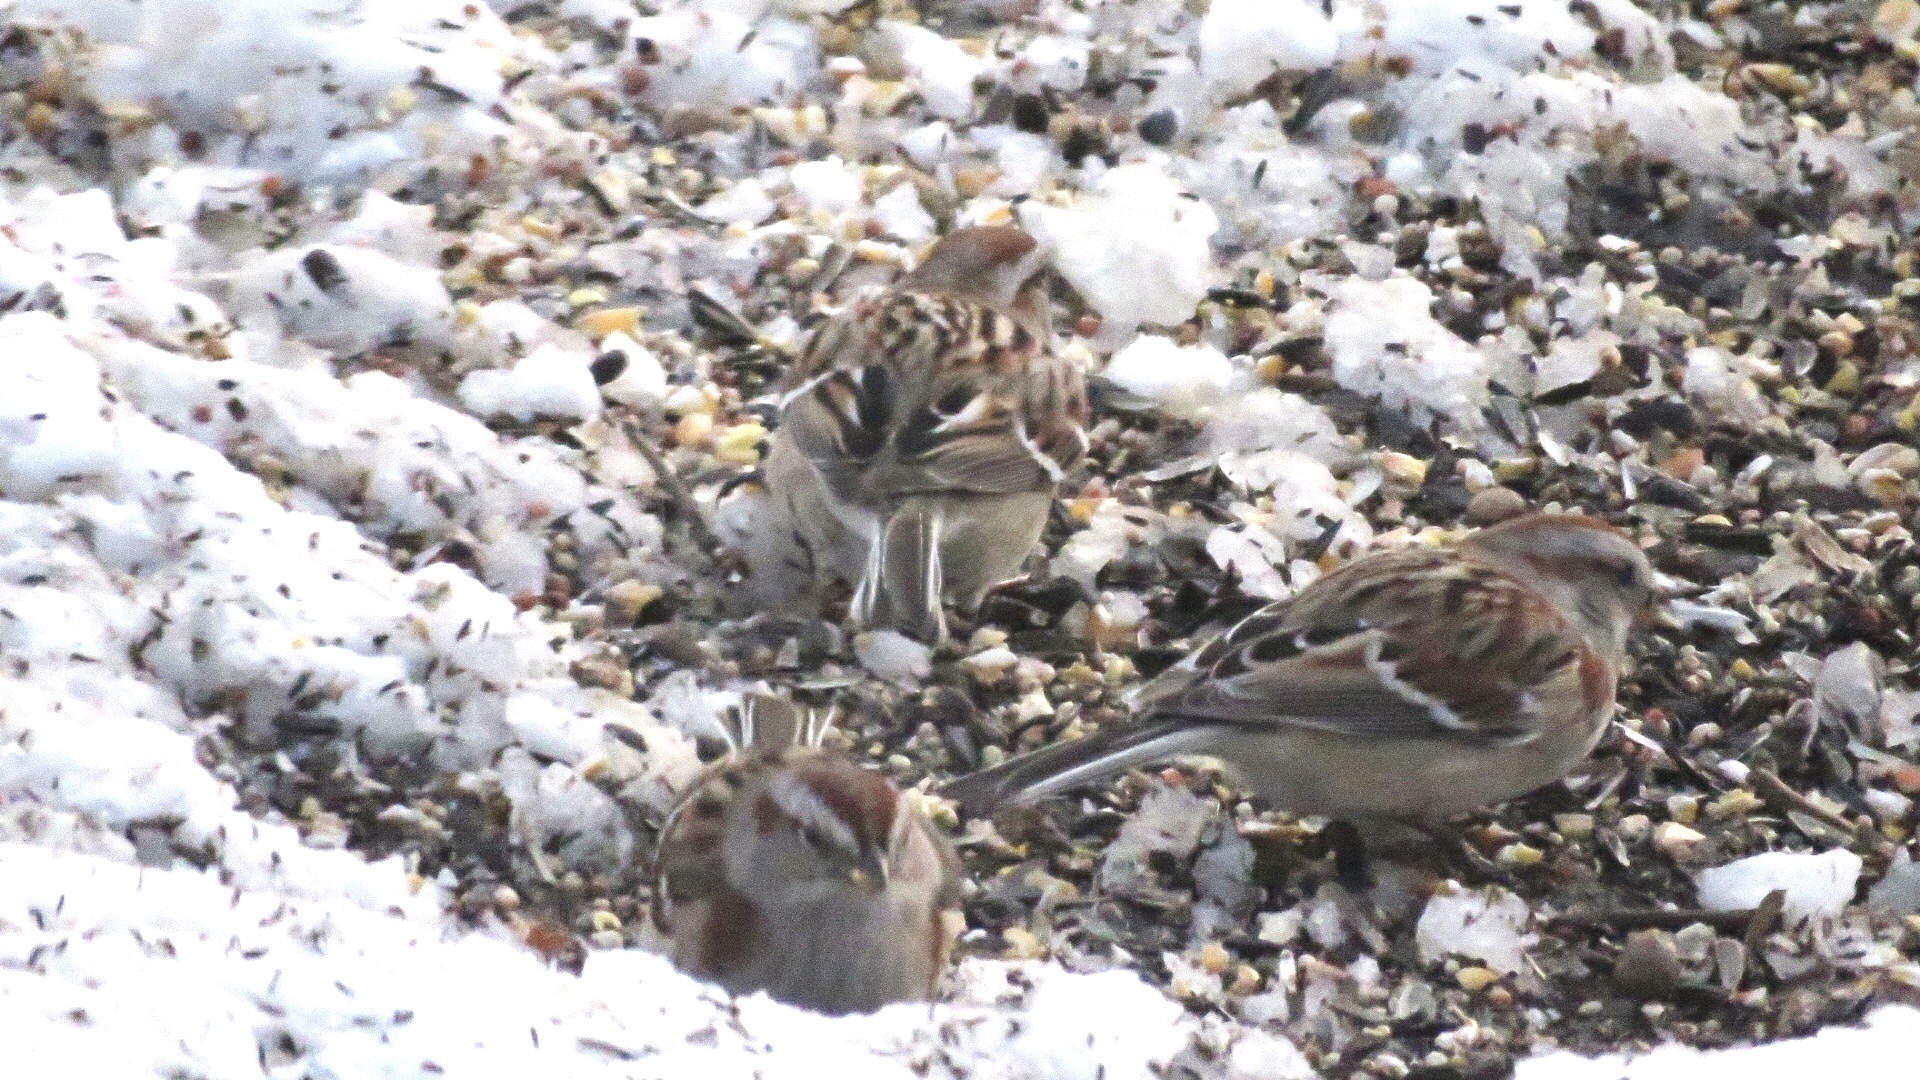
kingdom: Animalia
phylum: Chordata
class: Aves
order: Passeriformes
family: Passerellidae
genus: Spizelloides
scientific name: Spizelloides arborea
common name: American tree sparrow
